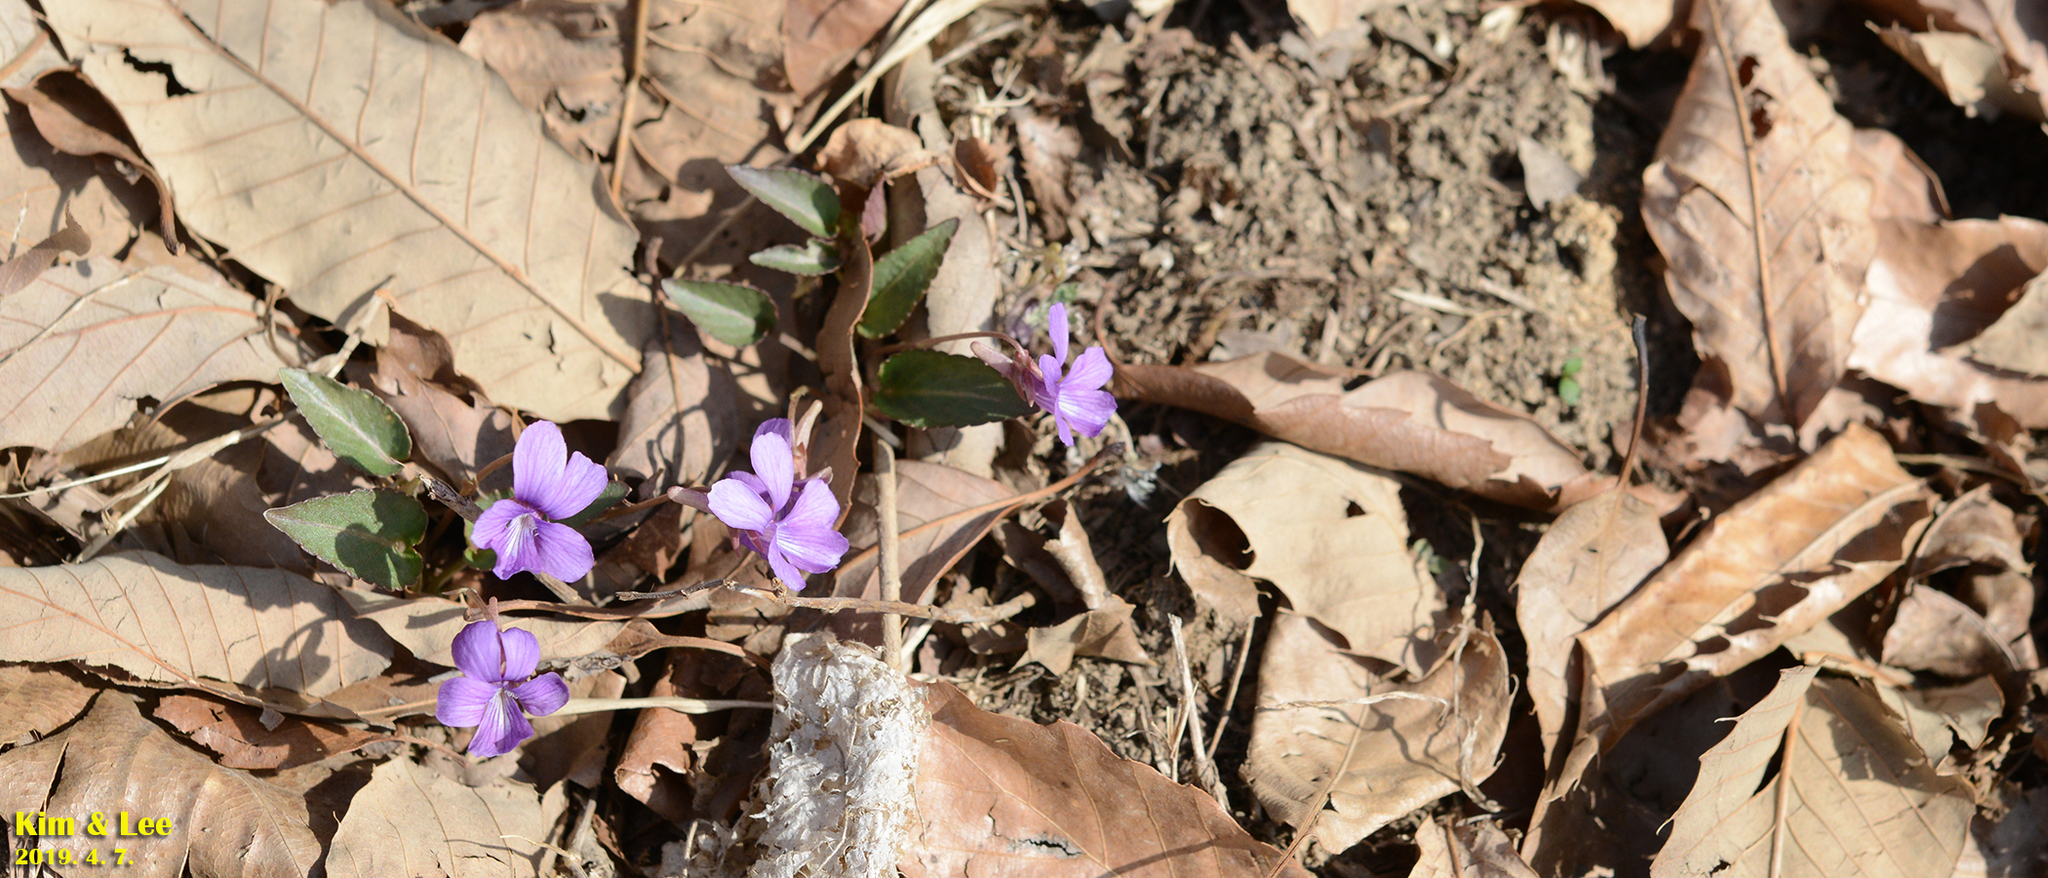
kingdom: Plantae
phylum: Tracheophyta
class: Magnoliopsida
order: Malpighiales
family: Violaceae
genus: Viola
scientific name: Viola phalacrocarpa
